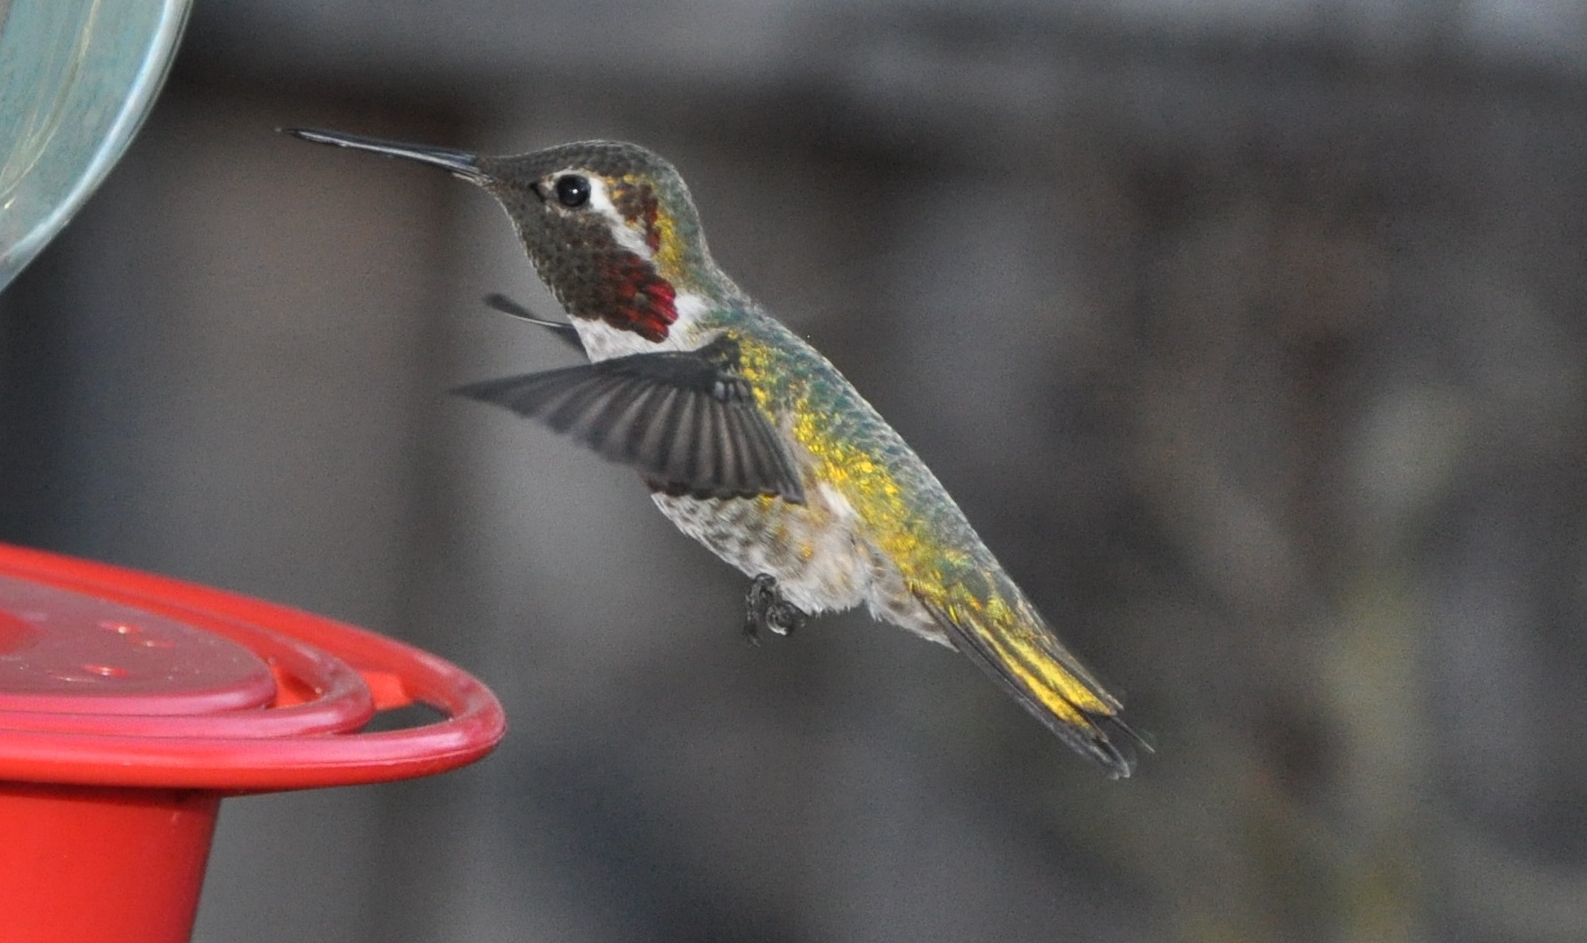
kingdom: Animalia
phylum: Chordata
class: Aves
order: Apodiformes
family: Trochilidae
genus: Calypte
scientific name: Calypte anna
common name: Anna's hummingbird
